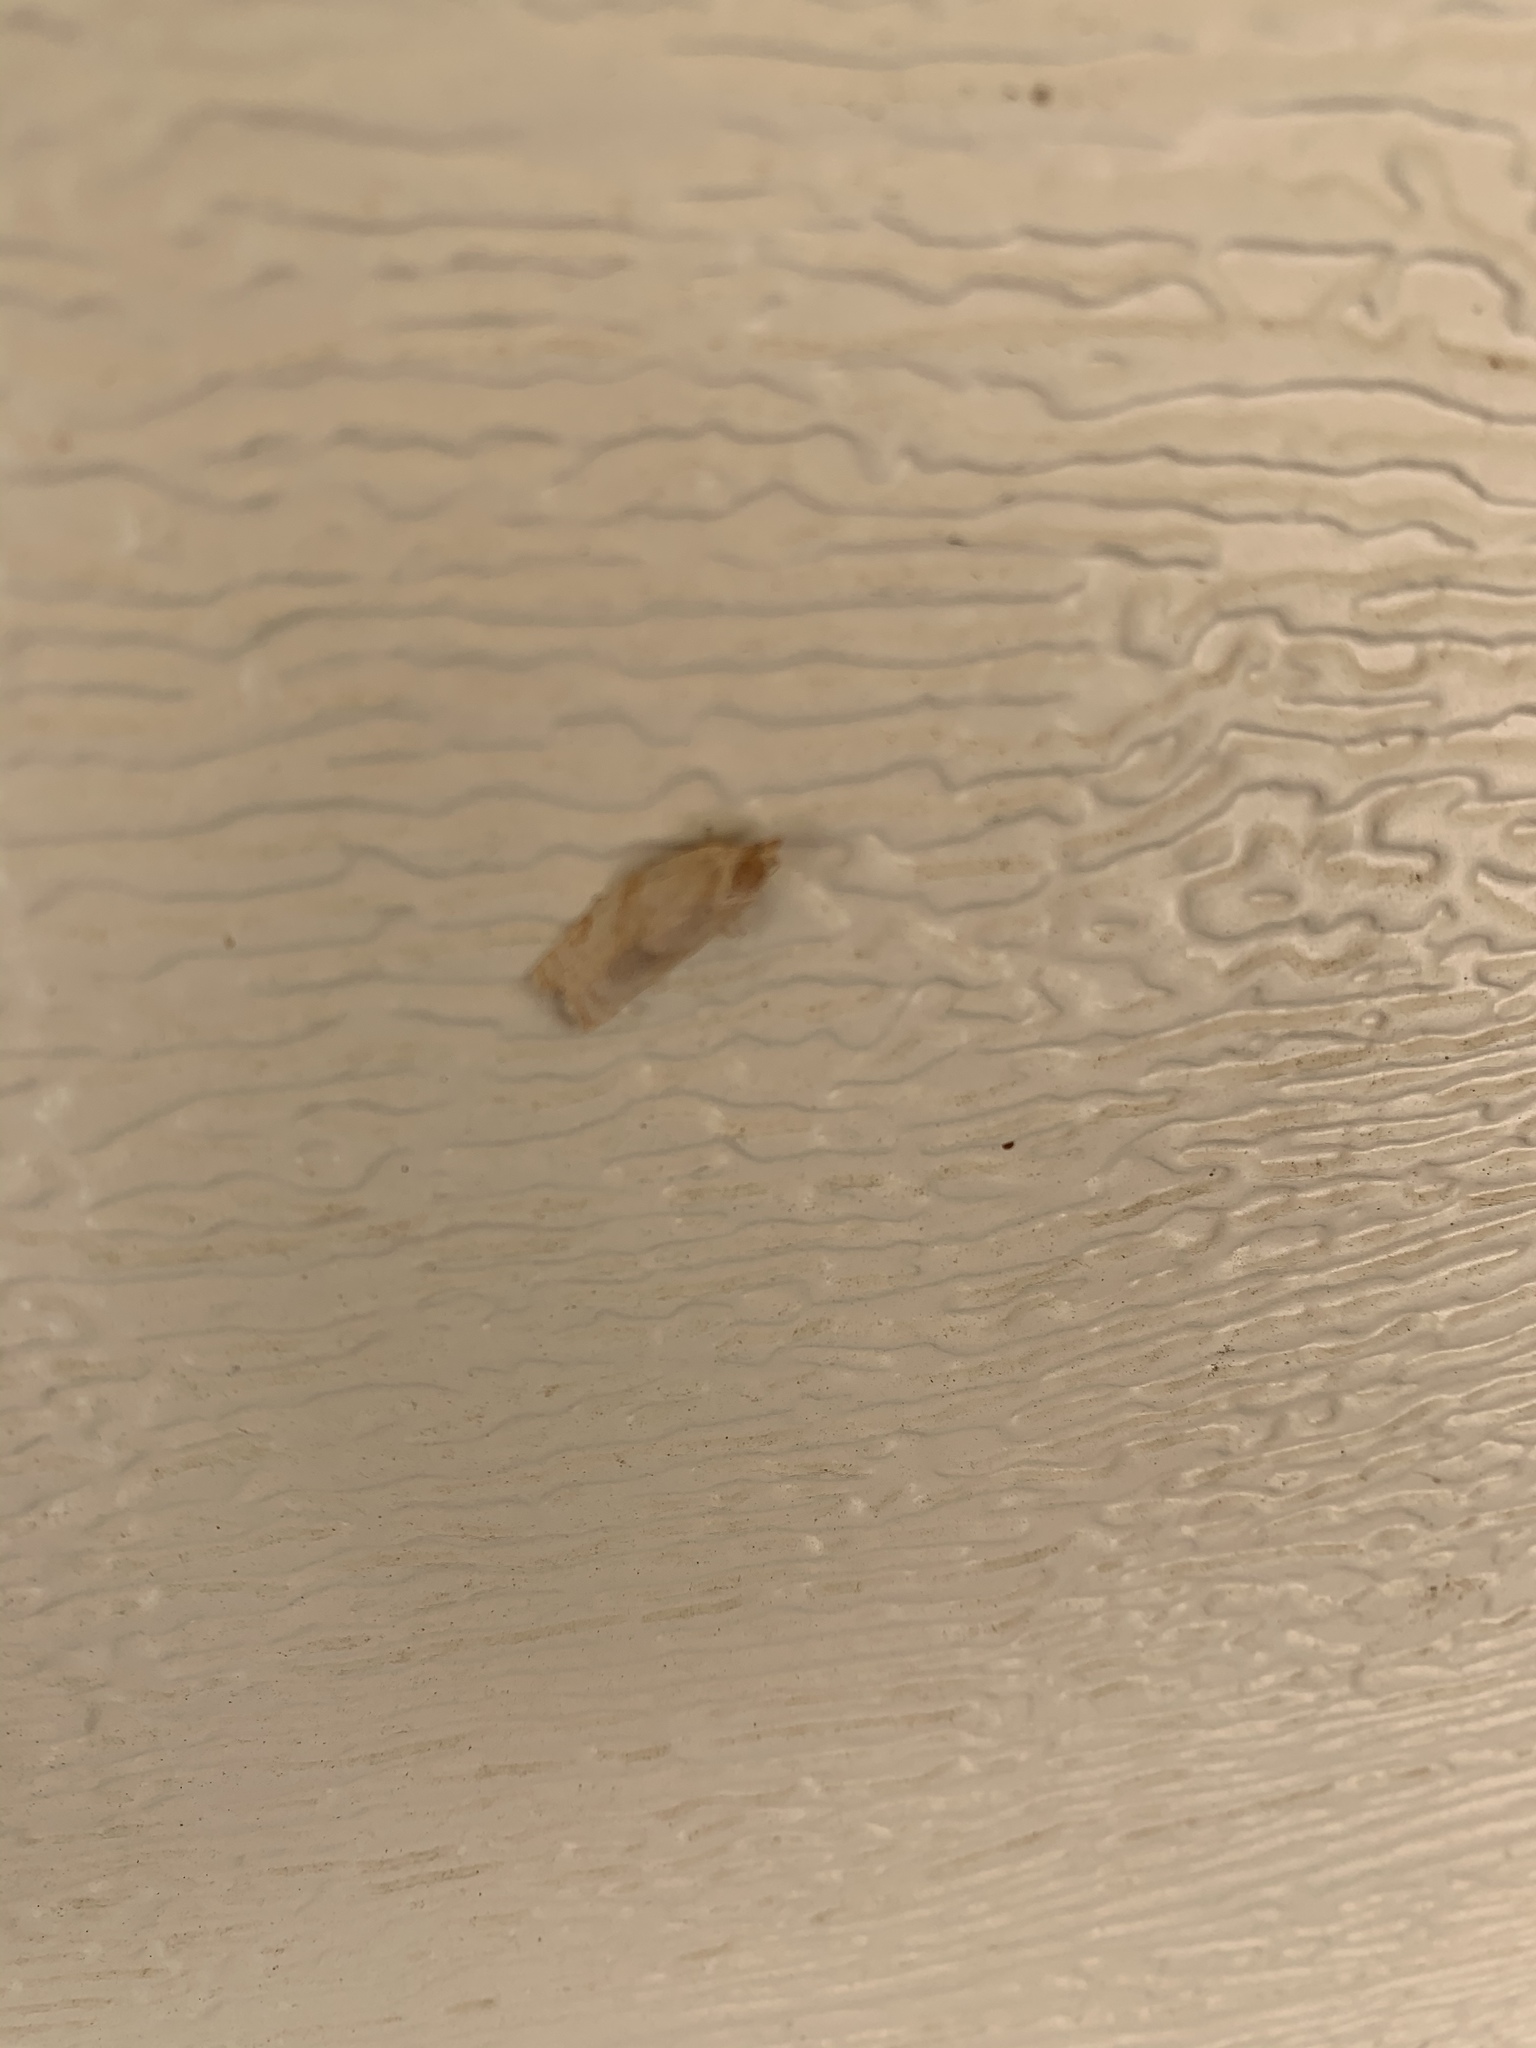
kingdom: Animalia
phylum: Arthropoda
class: Insecta
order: Lepidoptera
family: Tortricidae
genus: Argyrotaenia
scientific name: Argyrotaenia lautana
